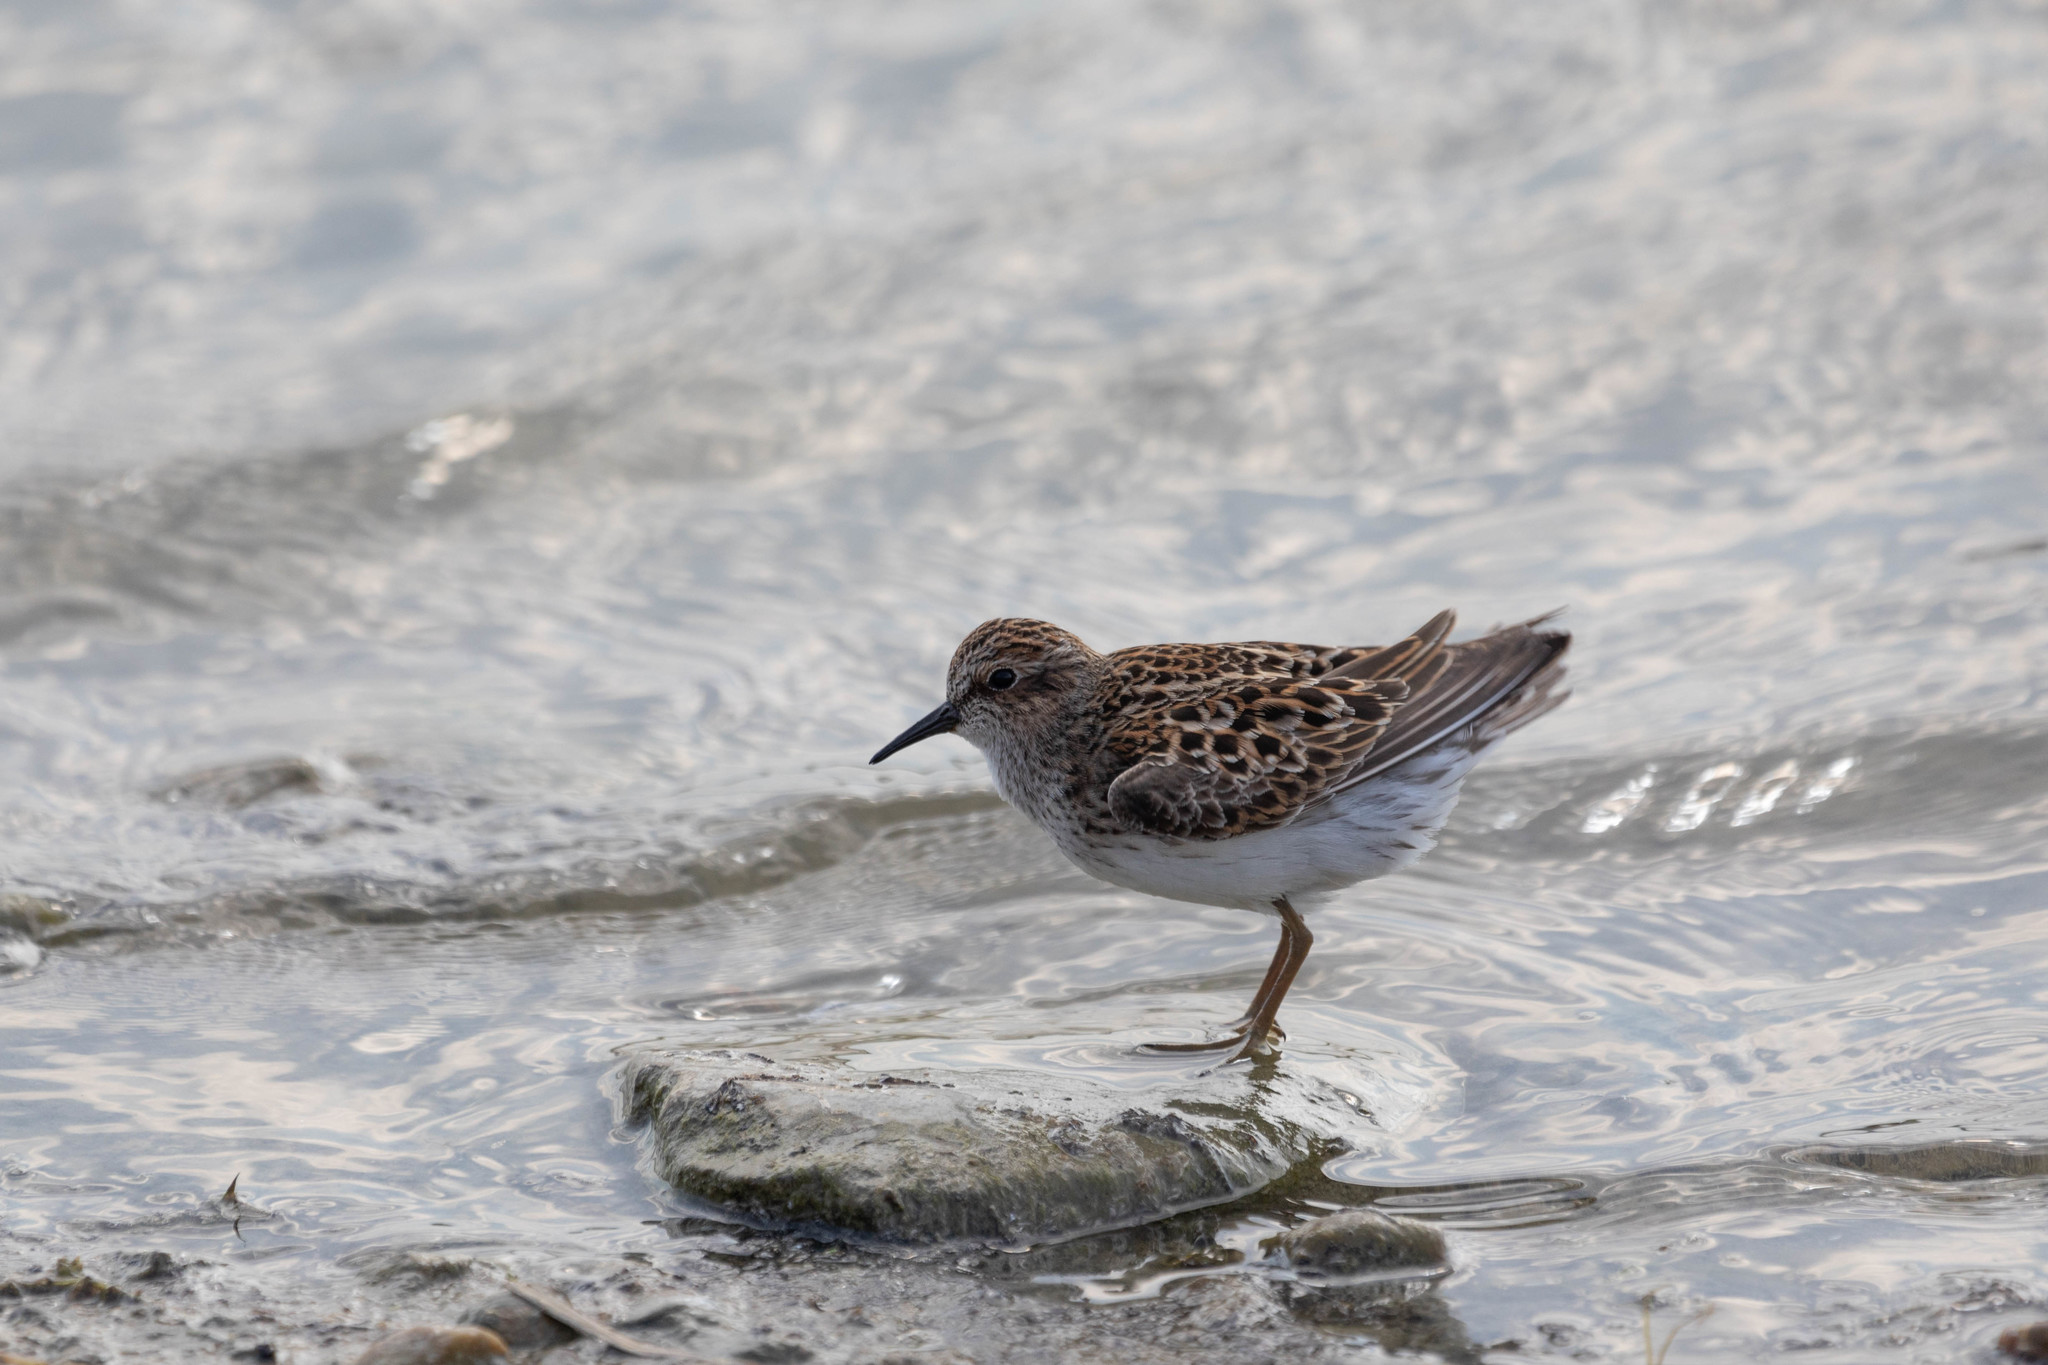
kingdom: Animalia
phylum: Chordata
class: Aves
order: Charadriiformes
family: Scolopacidae
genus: Calidris
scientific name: Calidris minutilla
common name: Least sandpiper
